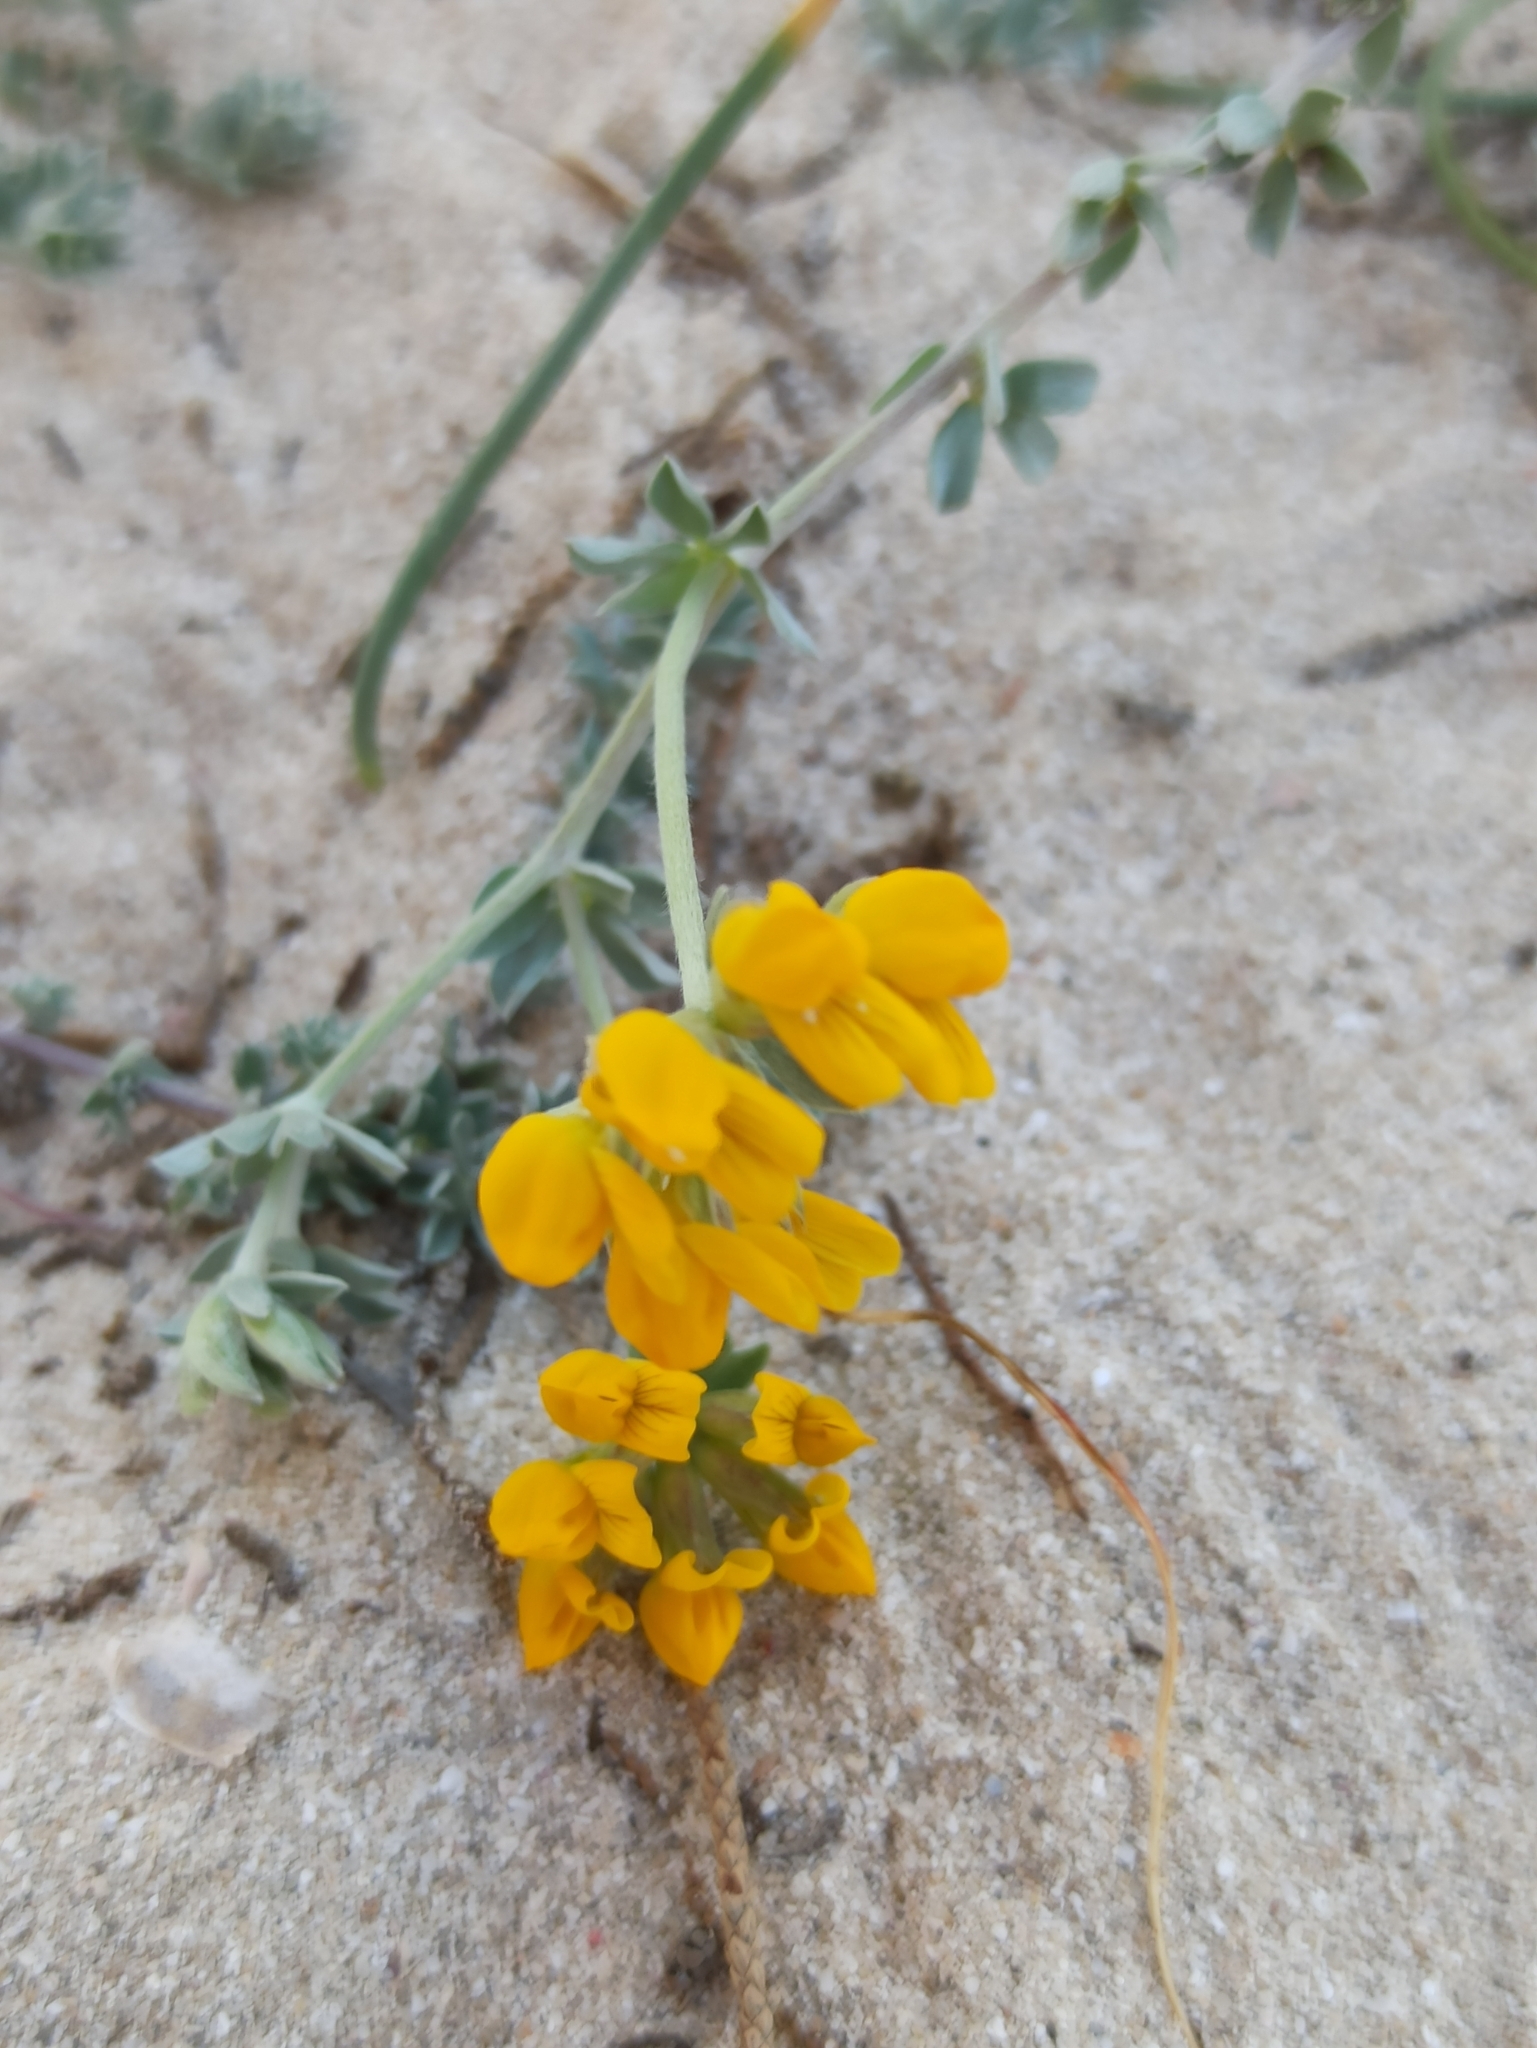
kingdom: Plantae
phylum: Tracheophyta
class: Magnoliopsida
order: Fabales
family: Fabaceae
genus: Lotus
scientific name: Lotus cytisoides
